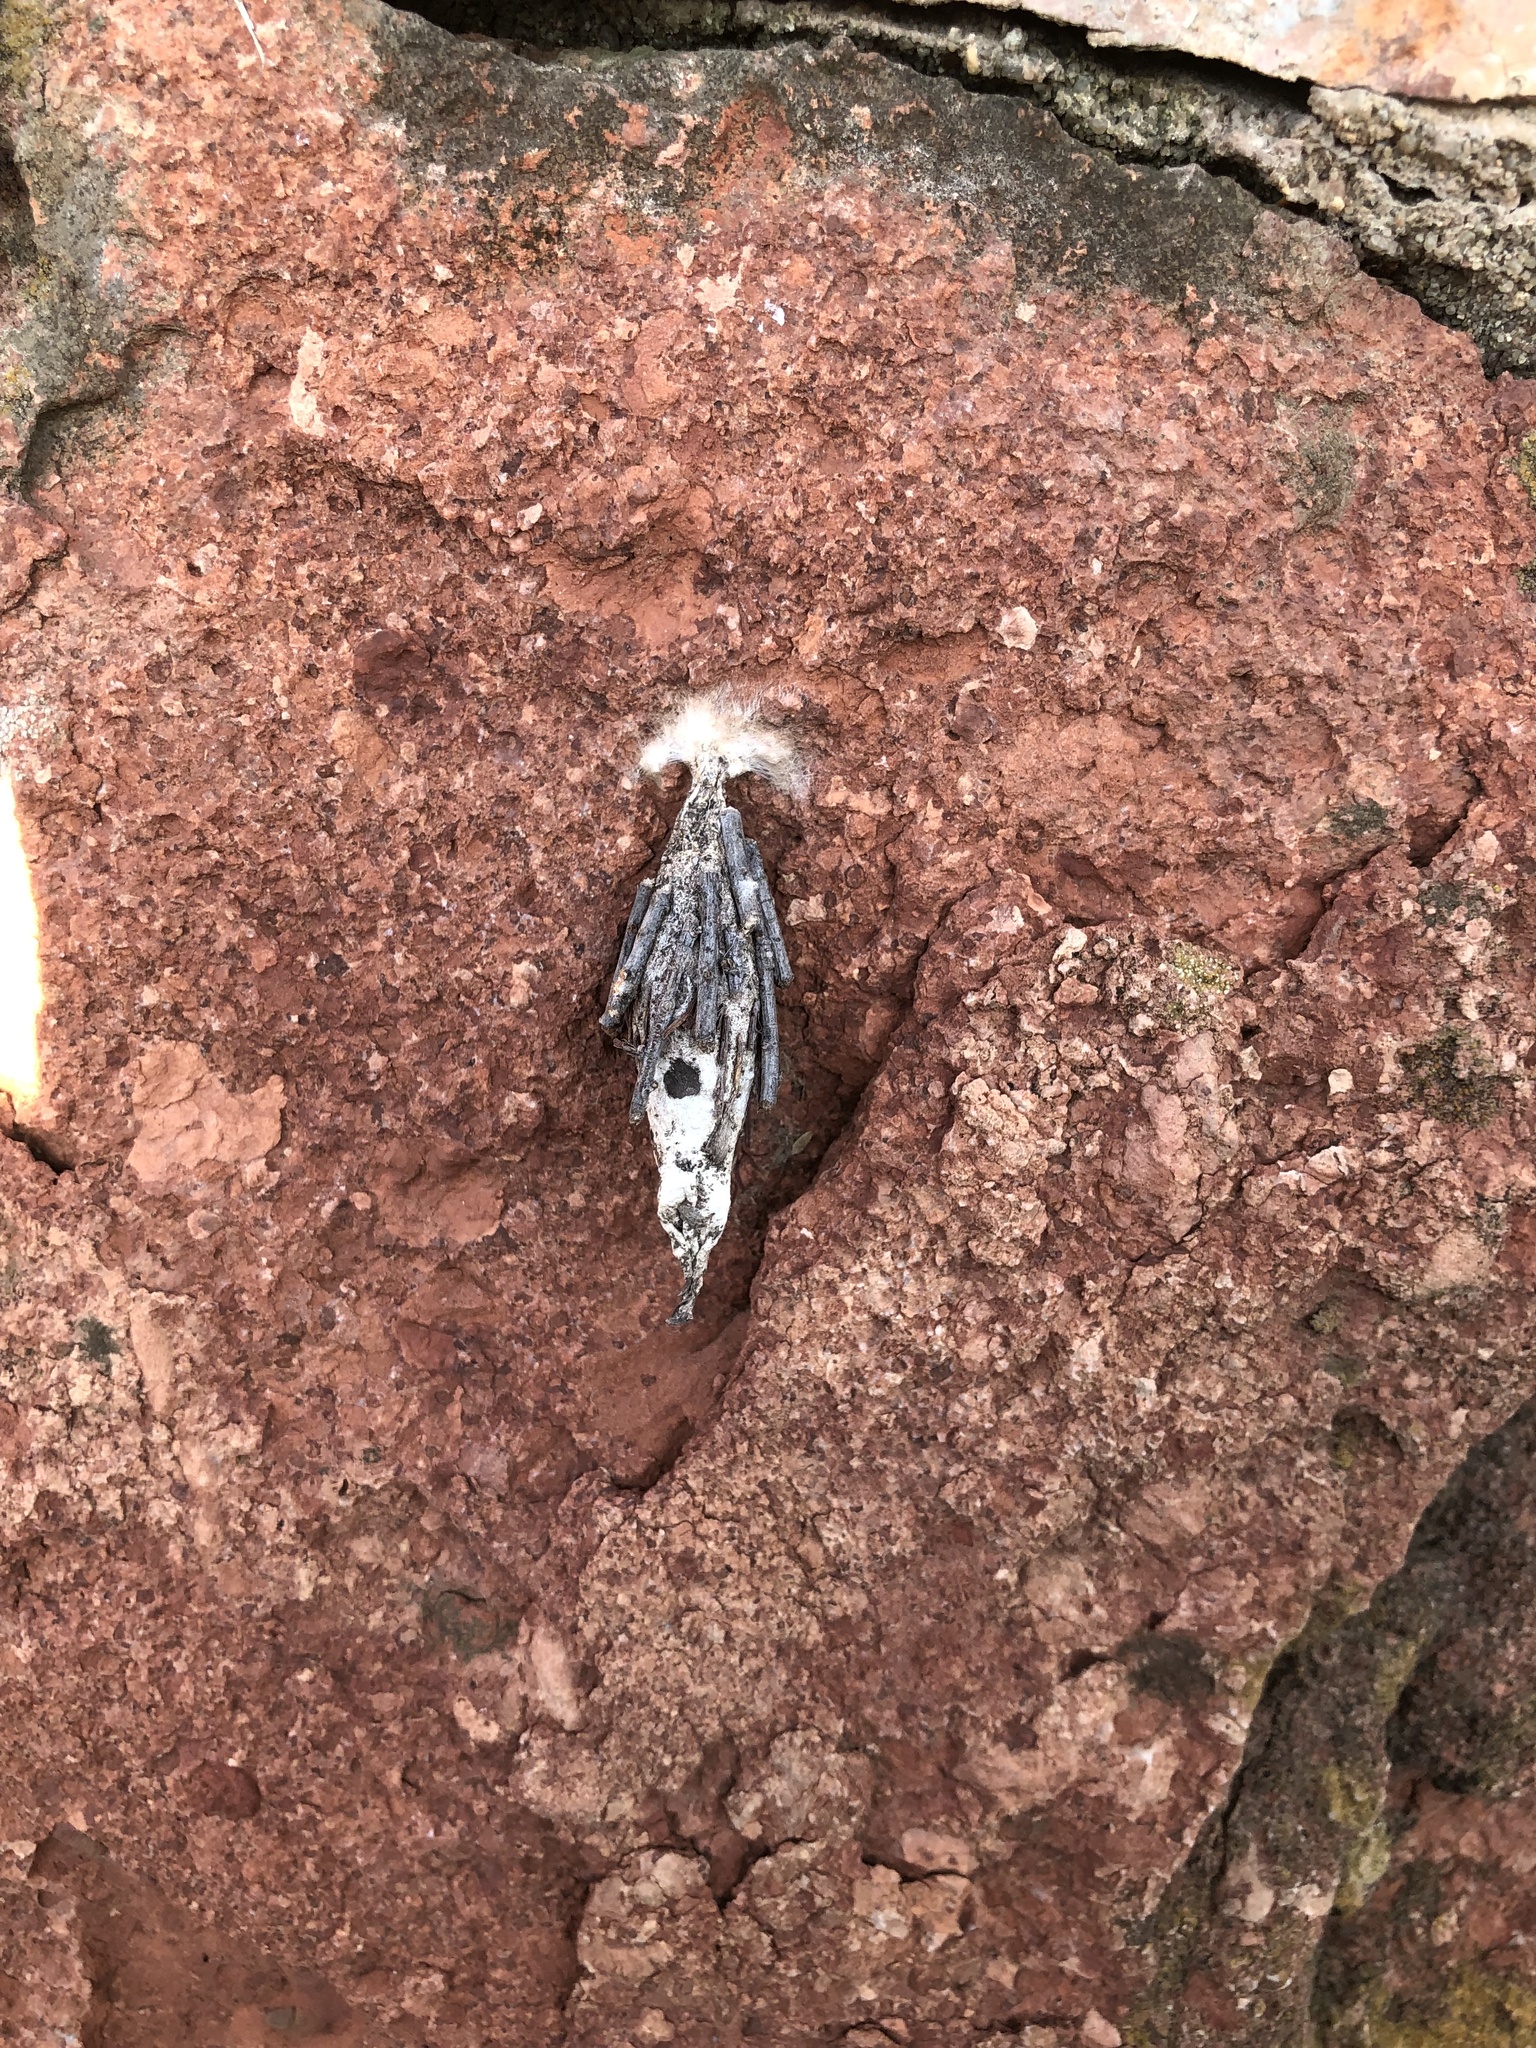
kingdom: Animalia
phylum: Arthropoda
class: Insecta
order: Lepidoptera
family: Psychidae
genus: Thyridopteryx
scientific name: Thyridopteryx ephemeraeformis
